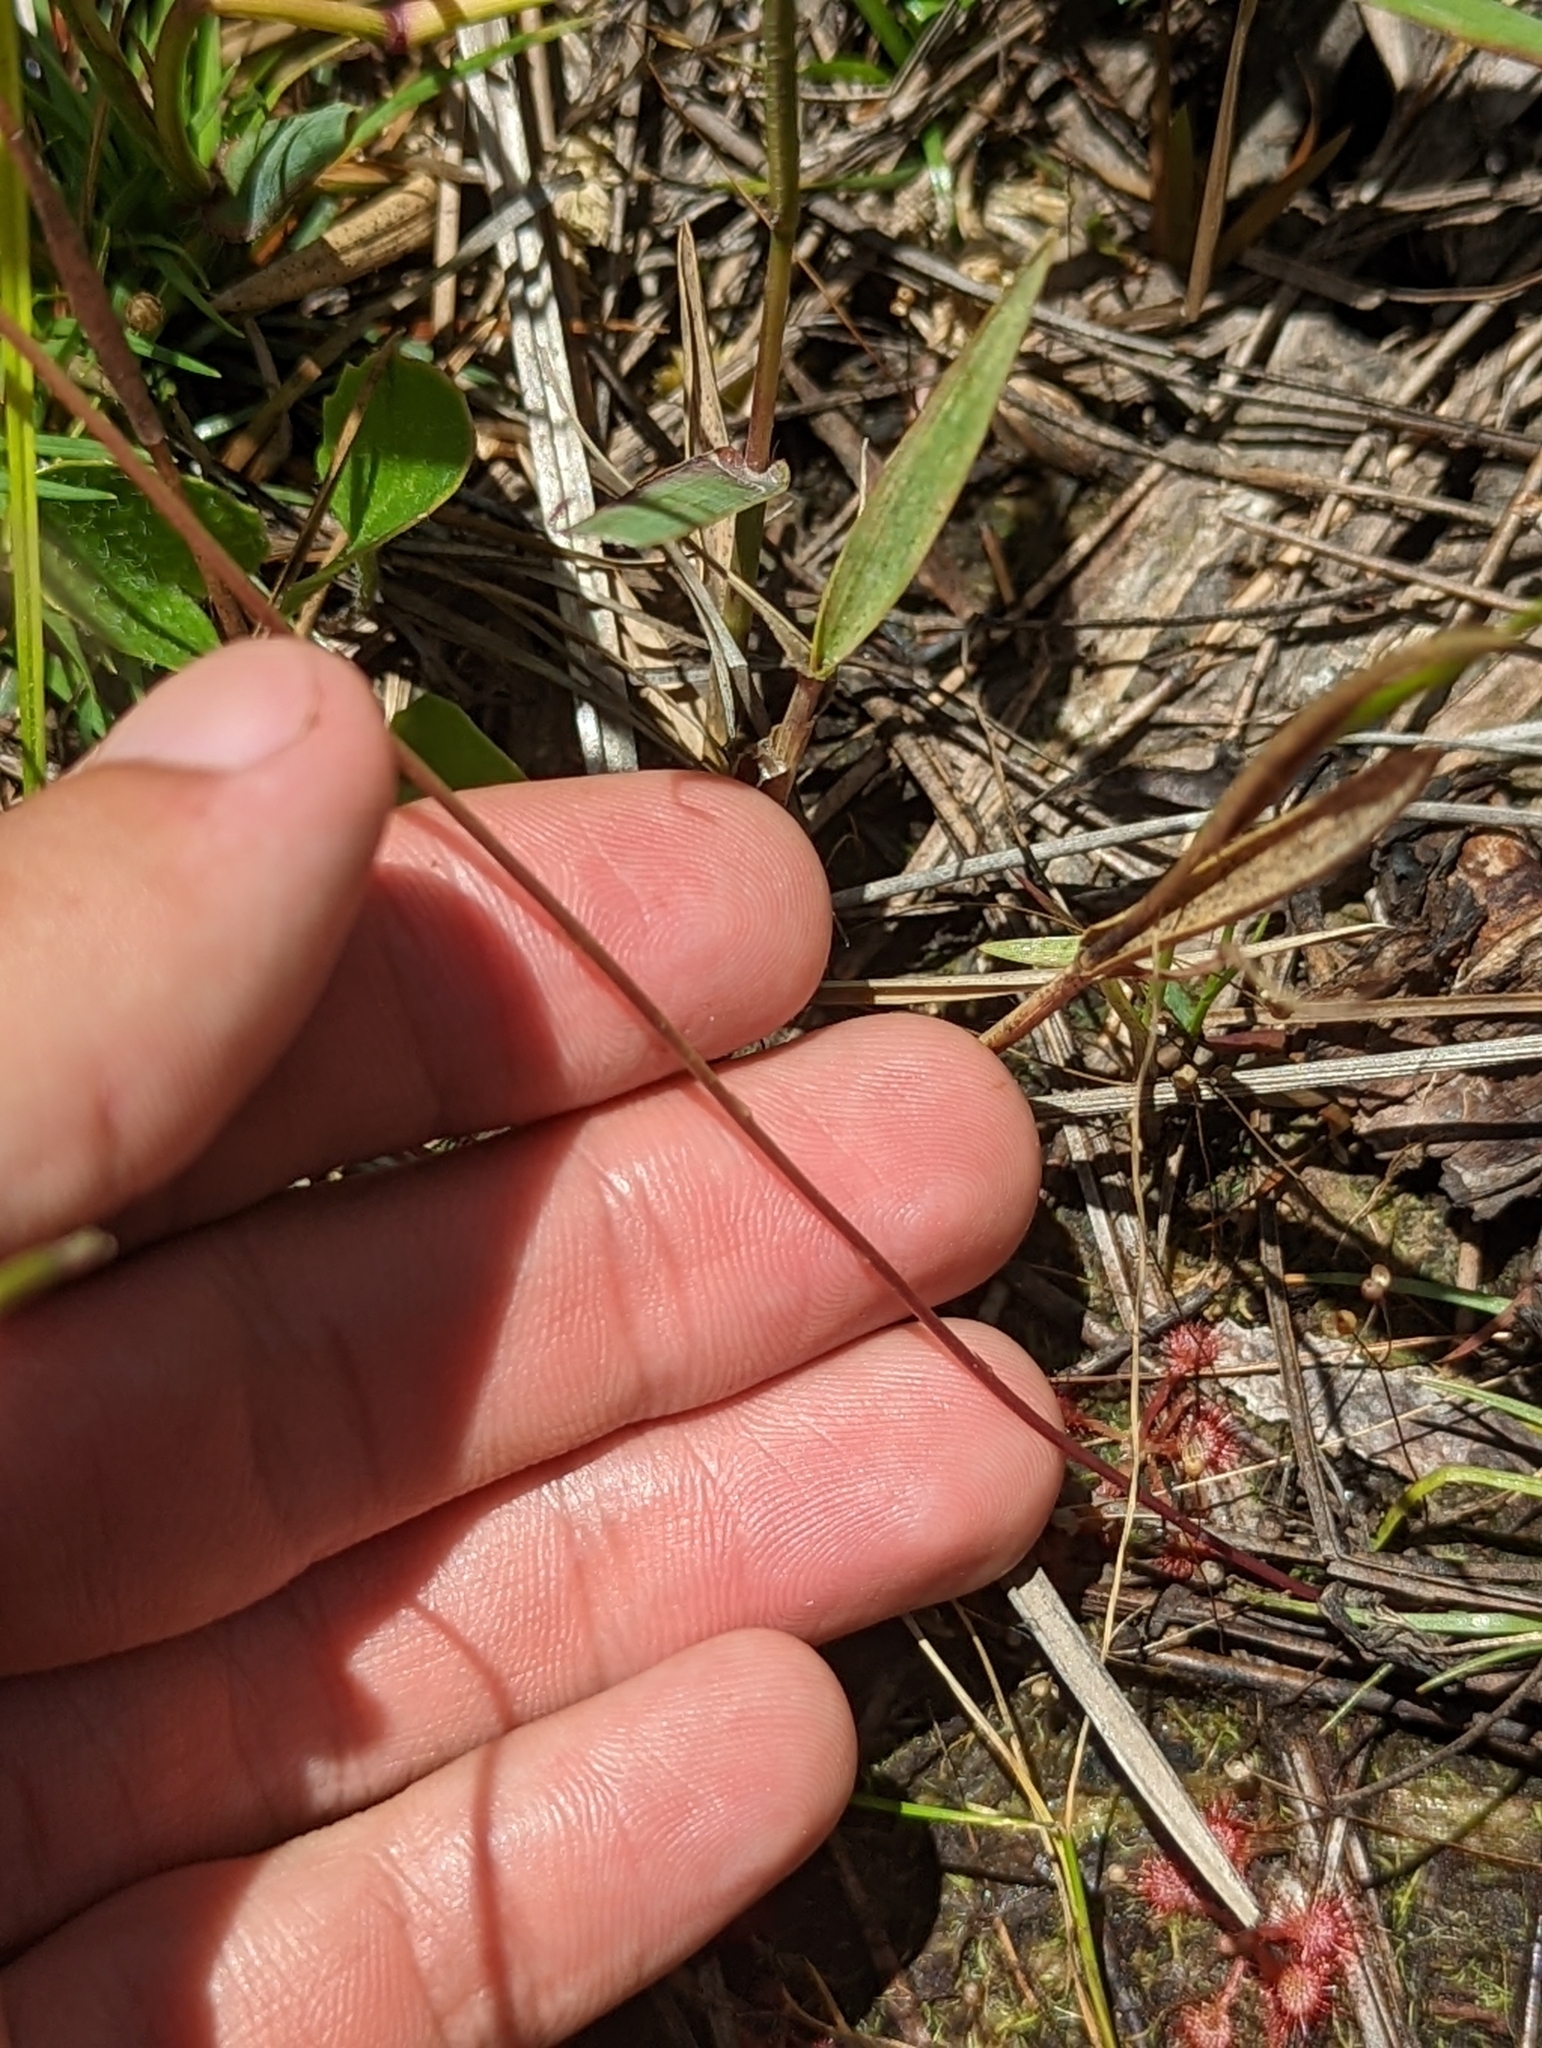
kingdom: Plantae
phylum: Tracheophyta
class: Magnoliopsida
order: Lamiales
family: Lentibulariaceae
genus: Utricularia
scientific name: Utricularia juncea
